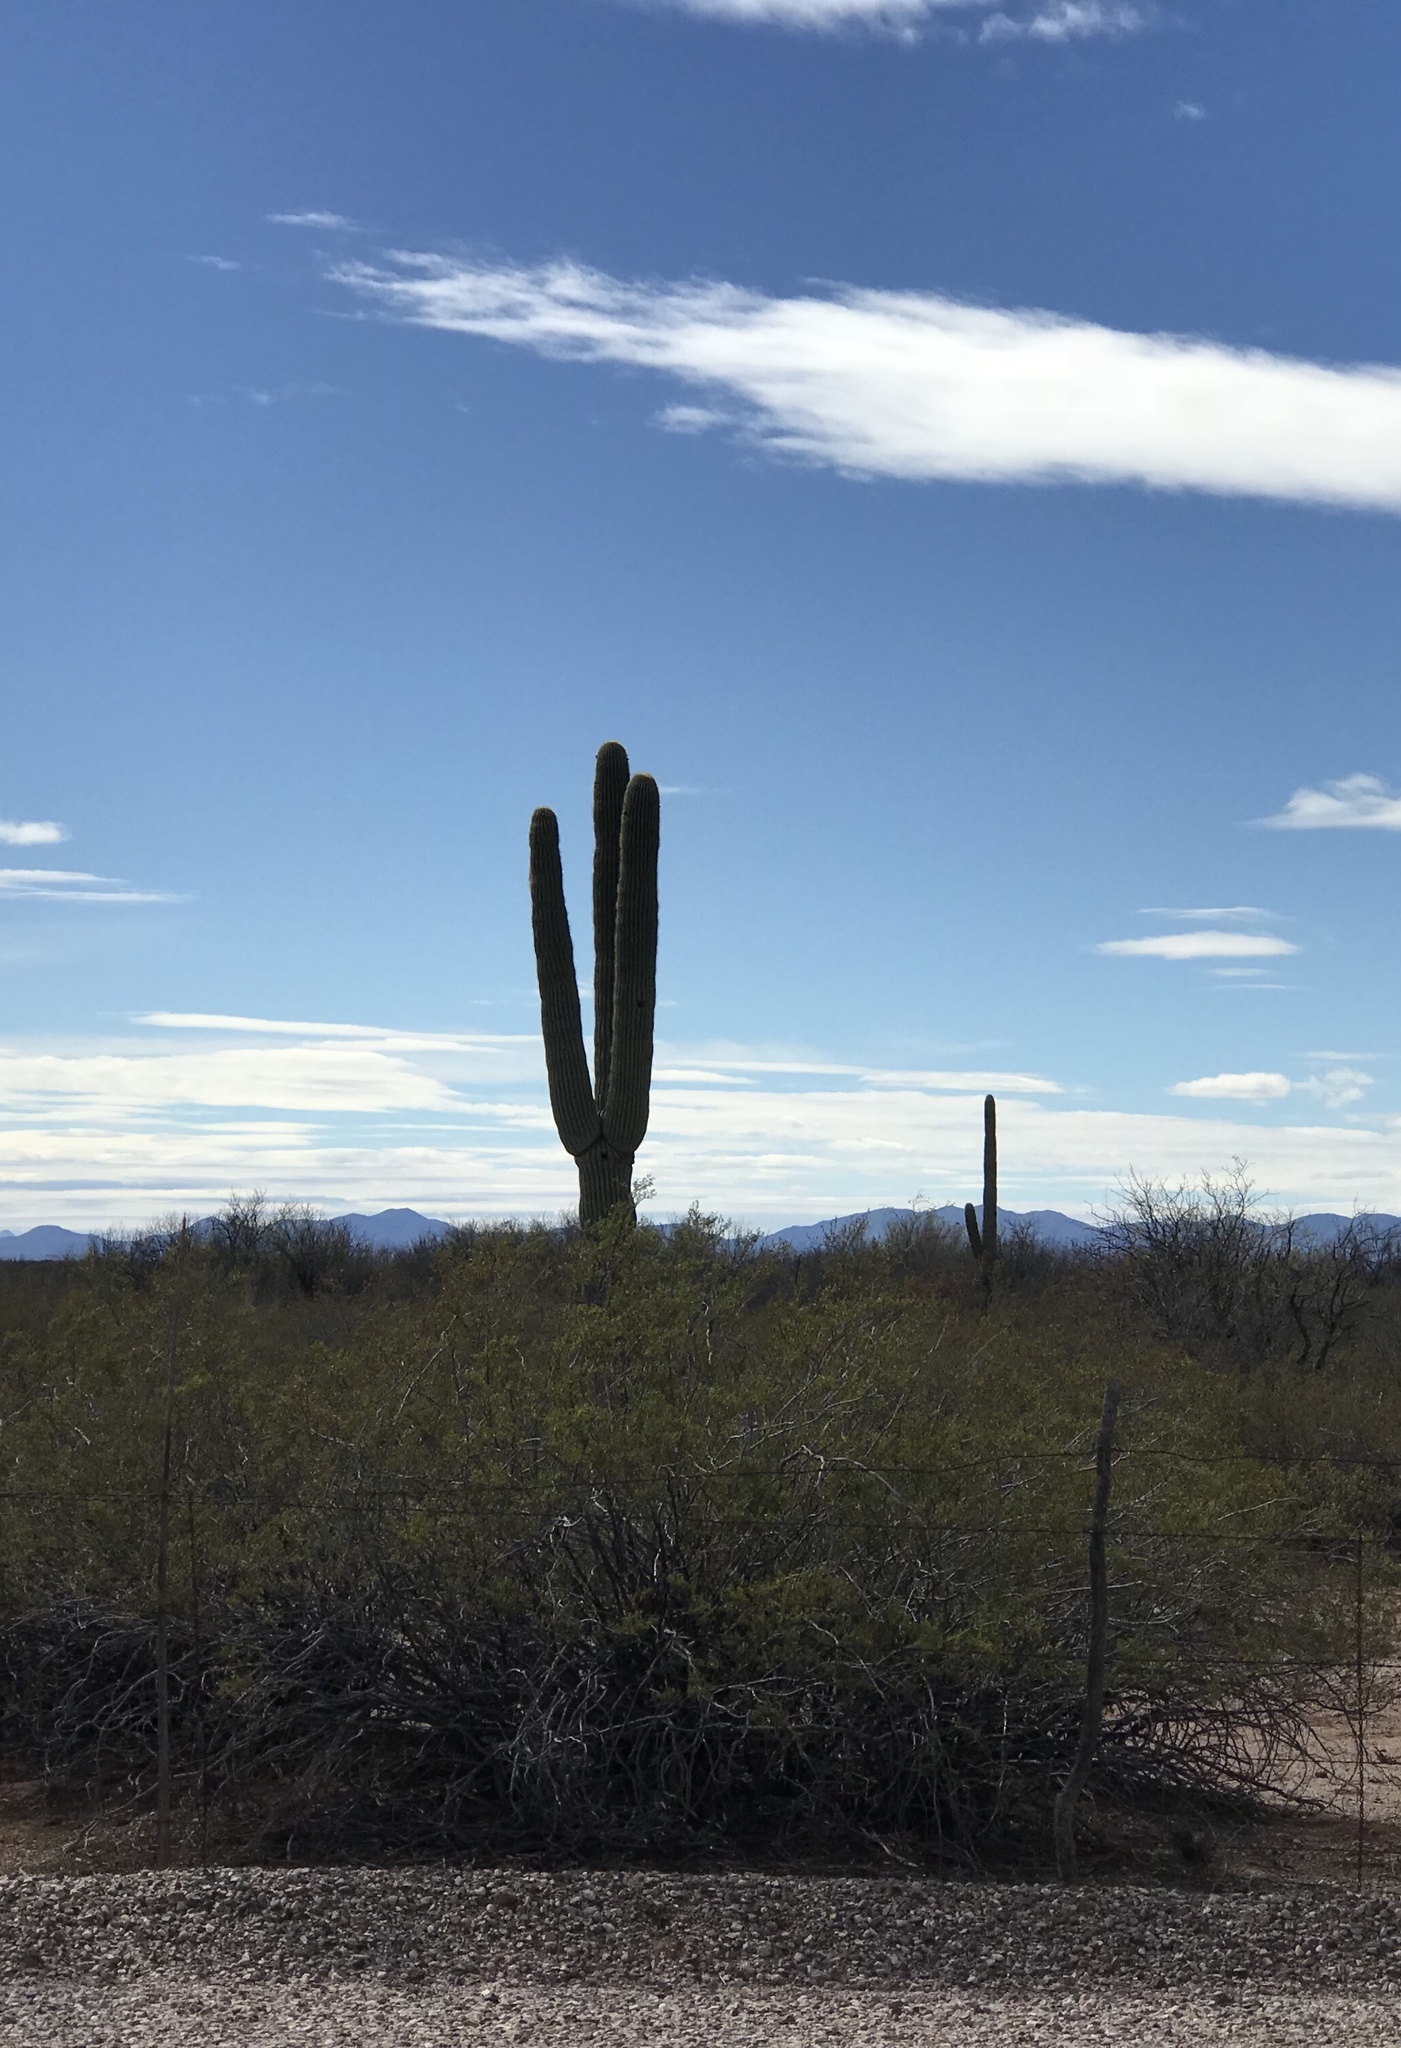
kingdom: Plantae
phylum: Tracheophyta
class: Magnoliopsida
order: Caryophyllales
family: Cactaceae
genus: Carnegiea
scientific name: Carnegiea gigantea
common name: Saguaro
